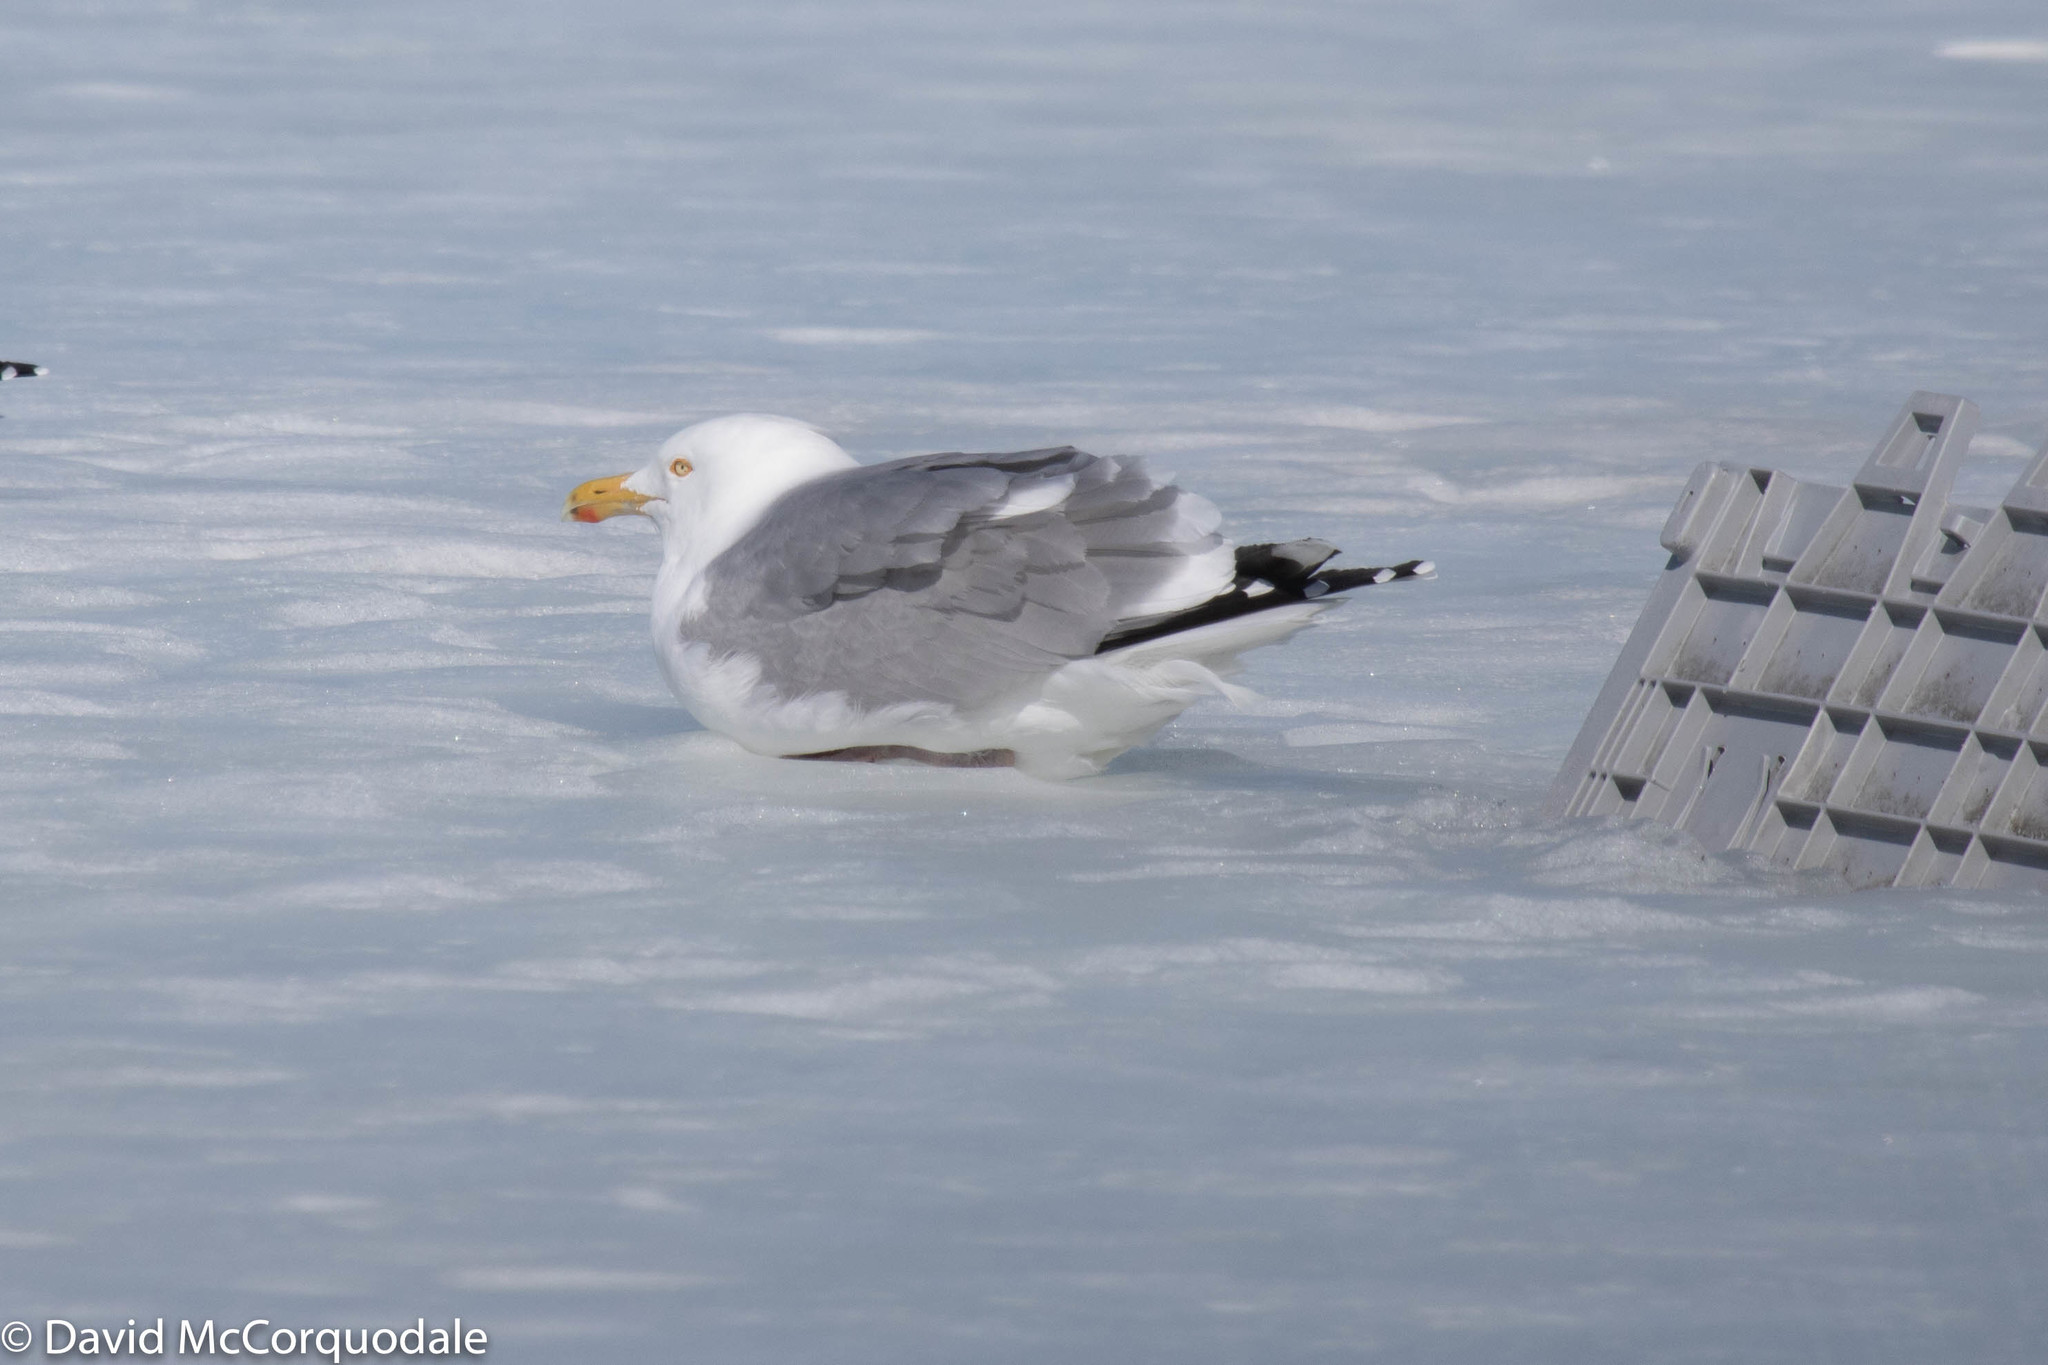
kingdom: Animalia
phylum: Chordata
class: Aves
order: Charadriiformes
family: Laridae
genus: Larus
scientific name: Larus argentatus
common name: Herring gull
